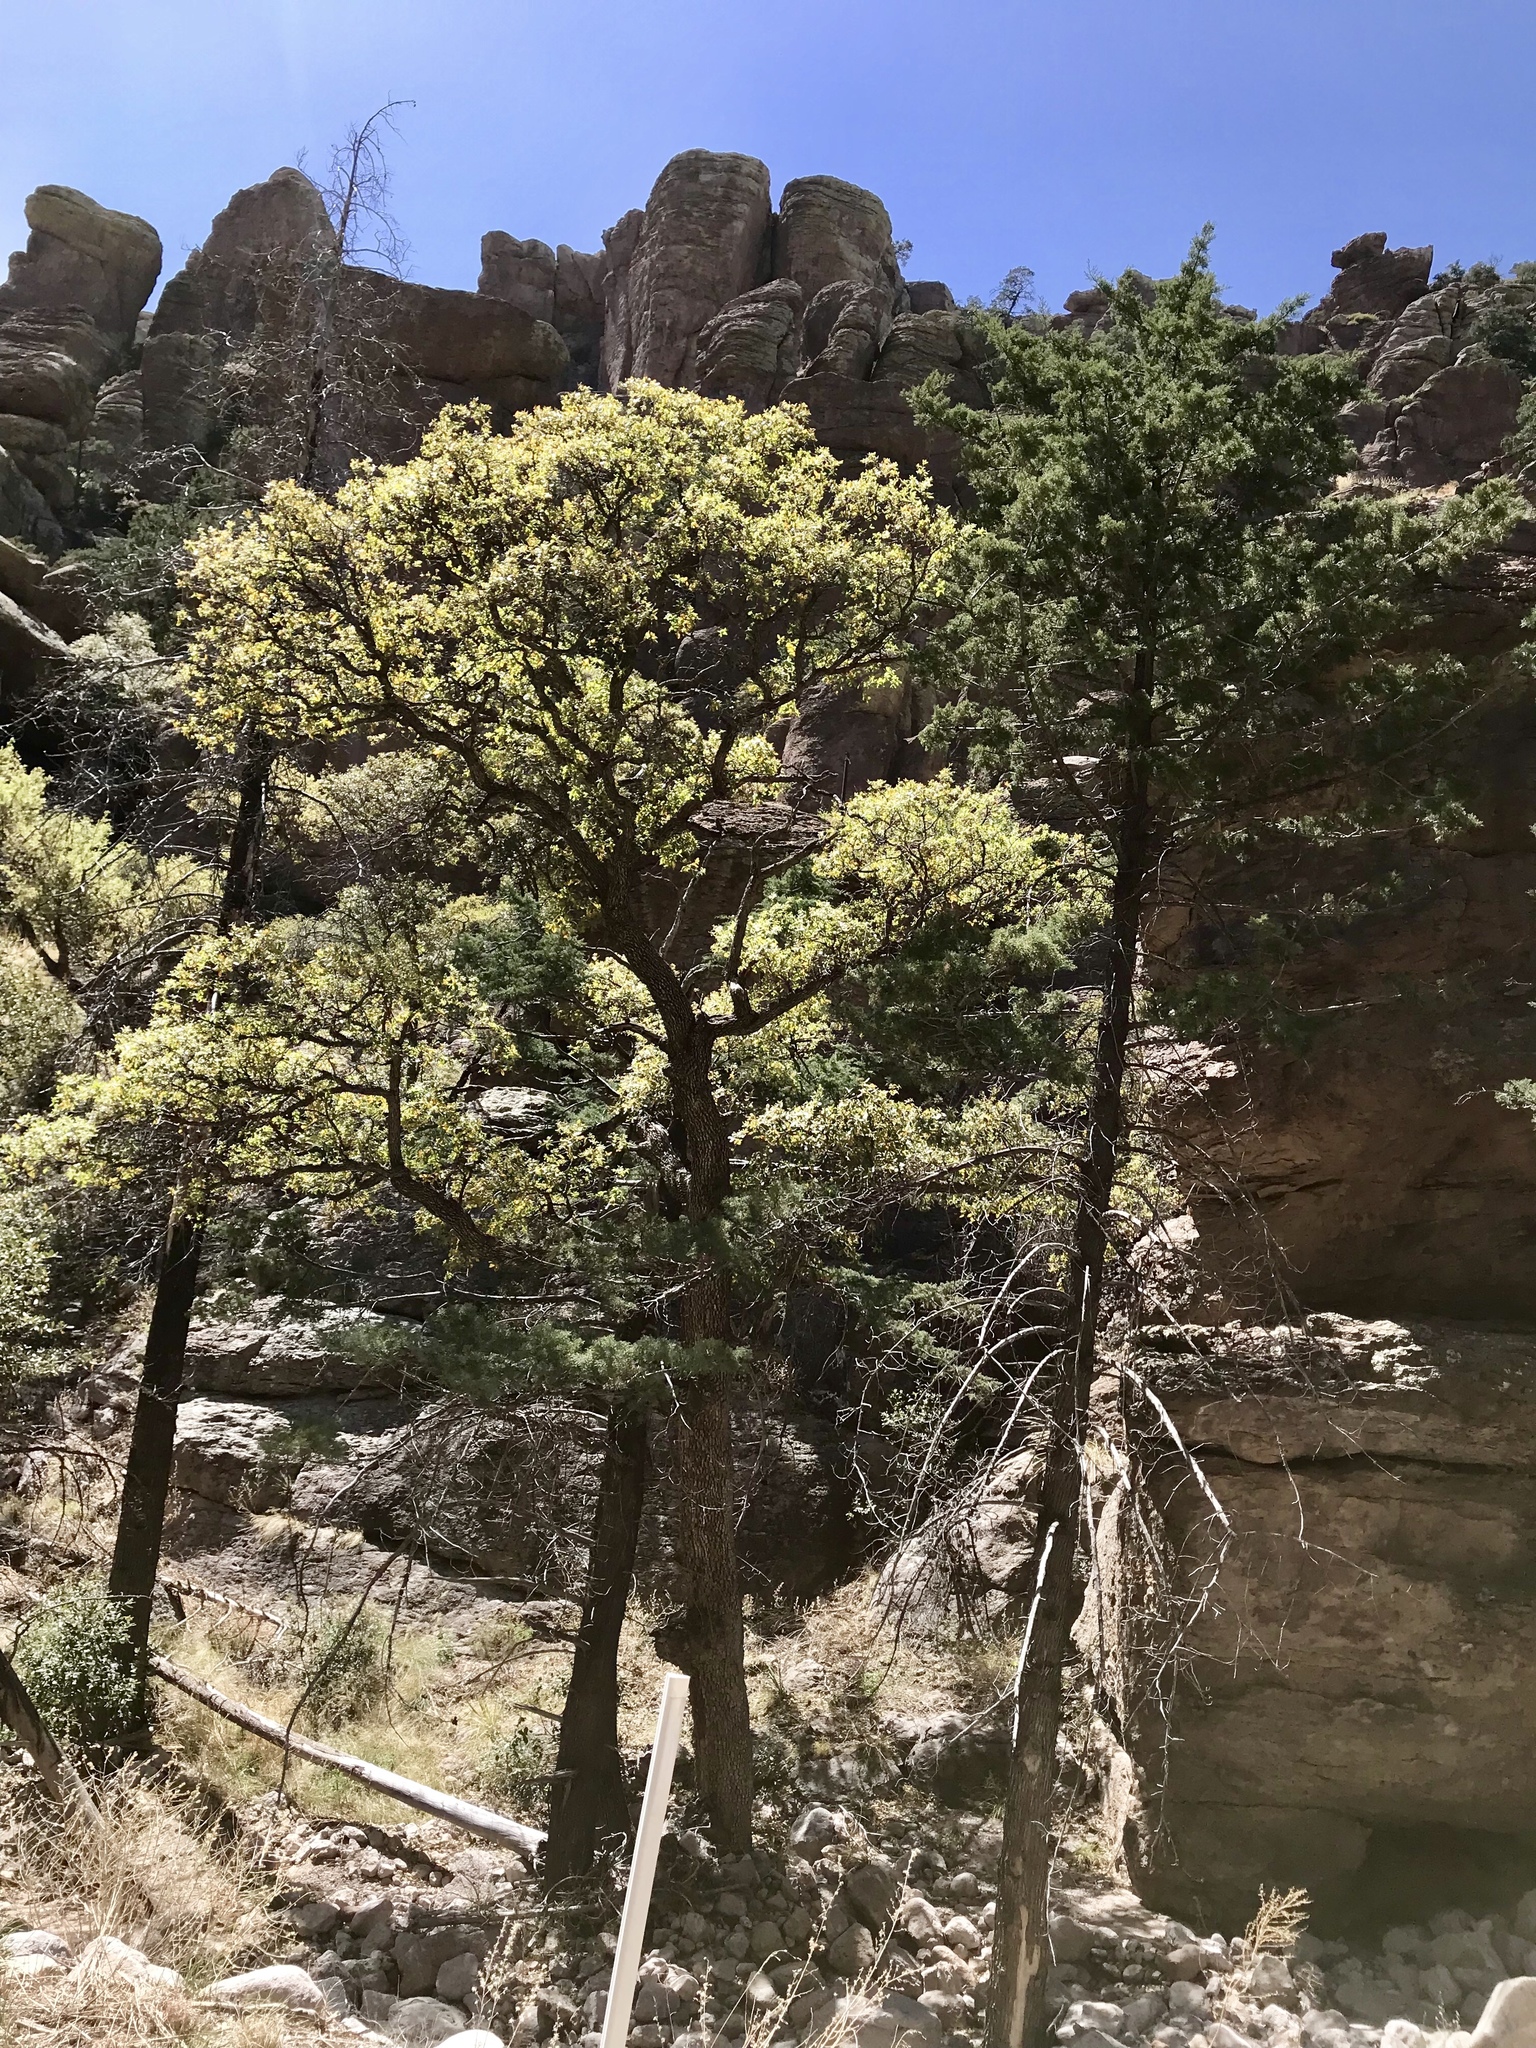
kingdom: Plantae
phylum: Tracheophyta
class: Magnoliopsida
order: Fagales
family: Fagaceae
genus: Quercus
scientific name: Quercus arizonica
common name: Arizona white oak
